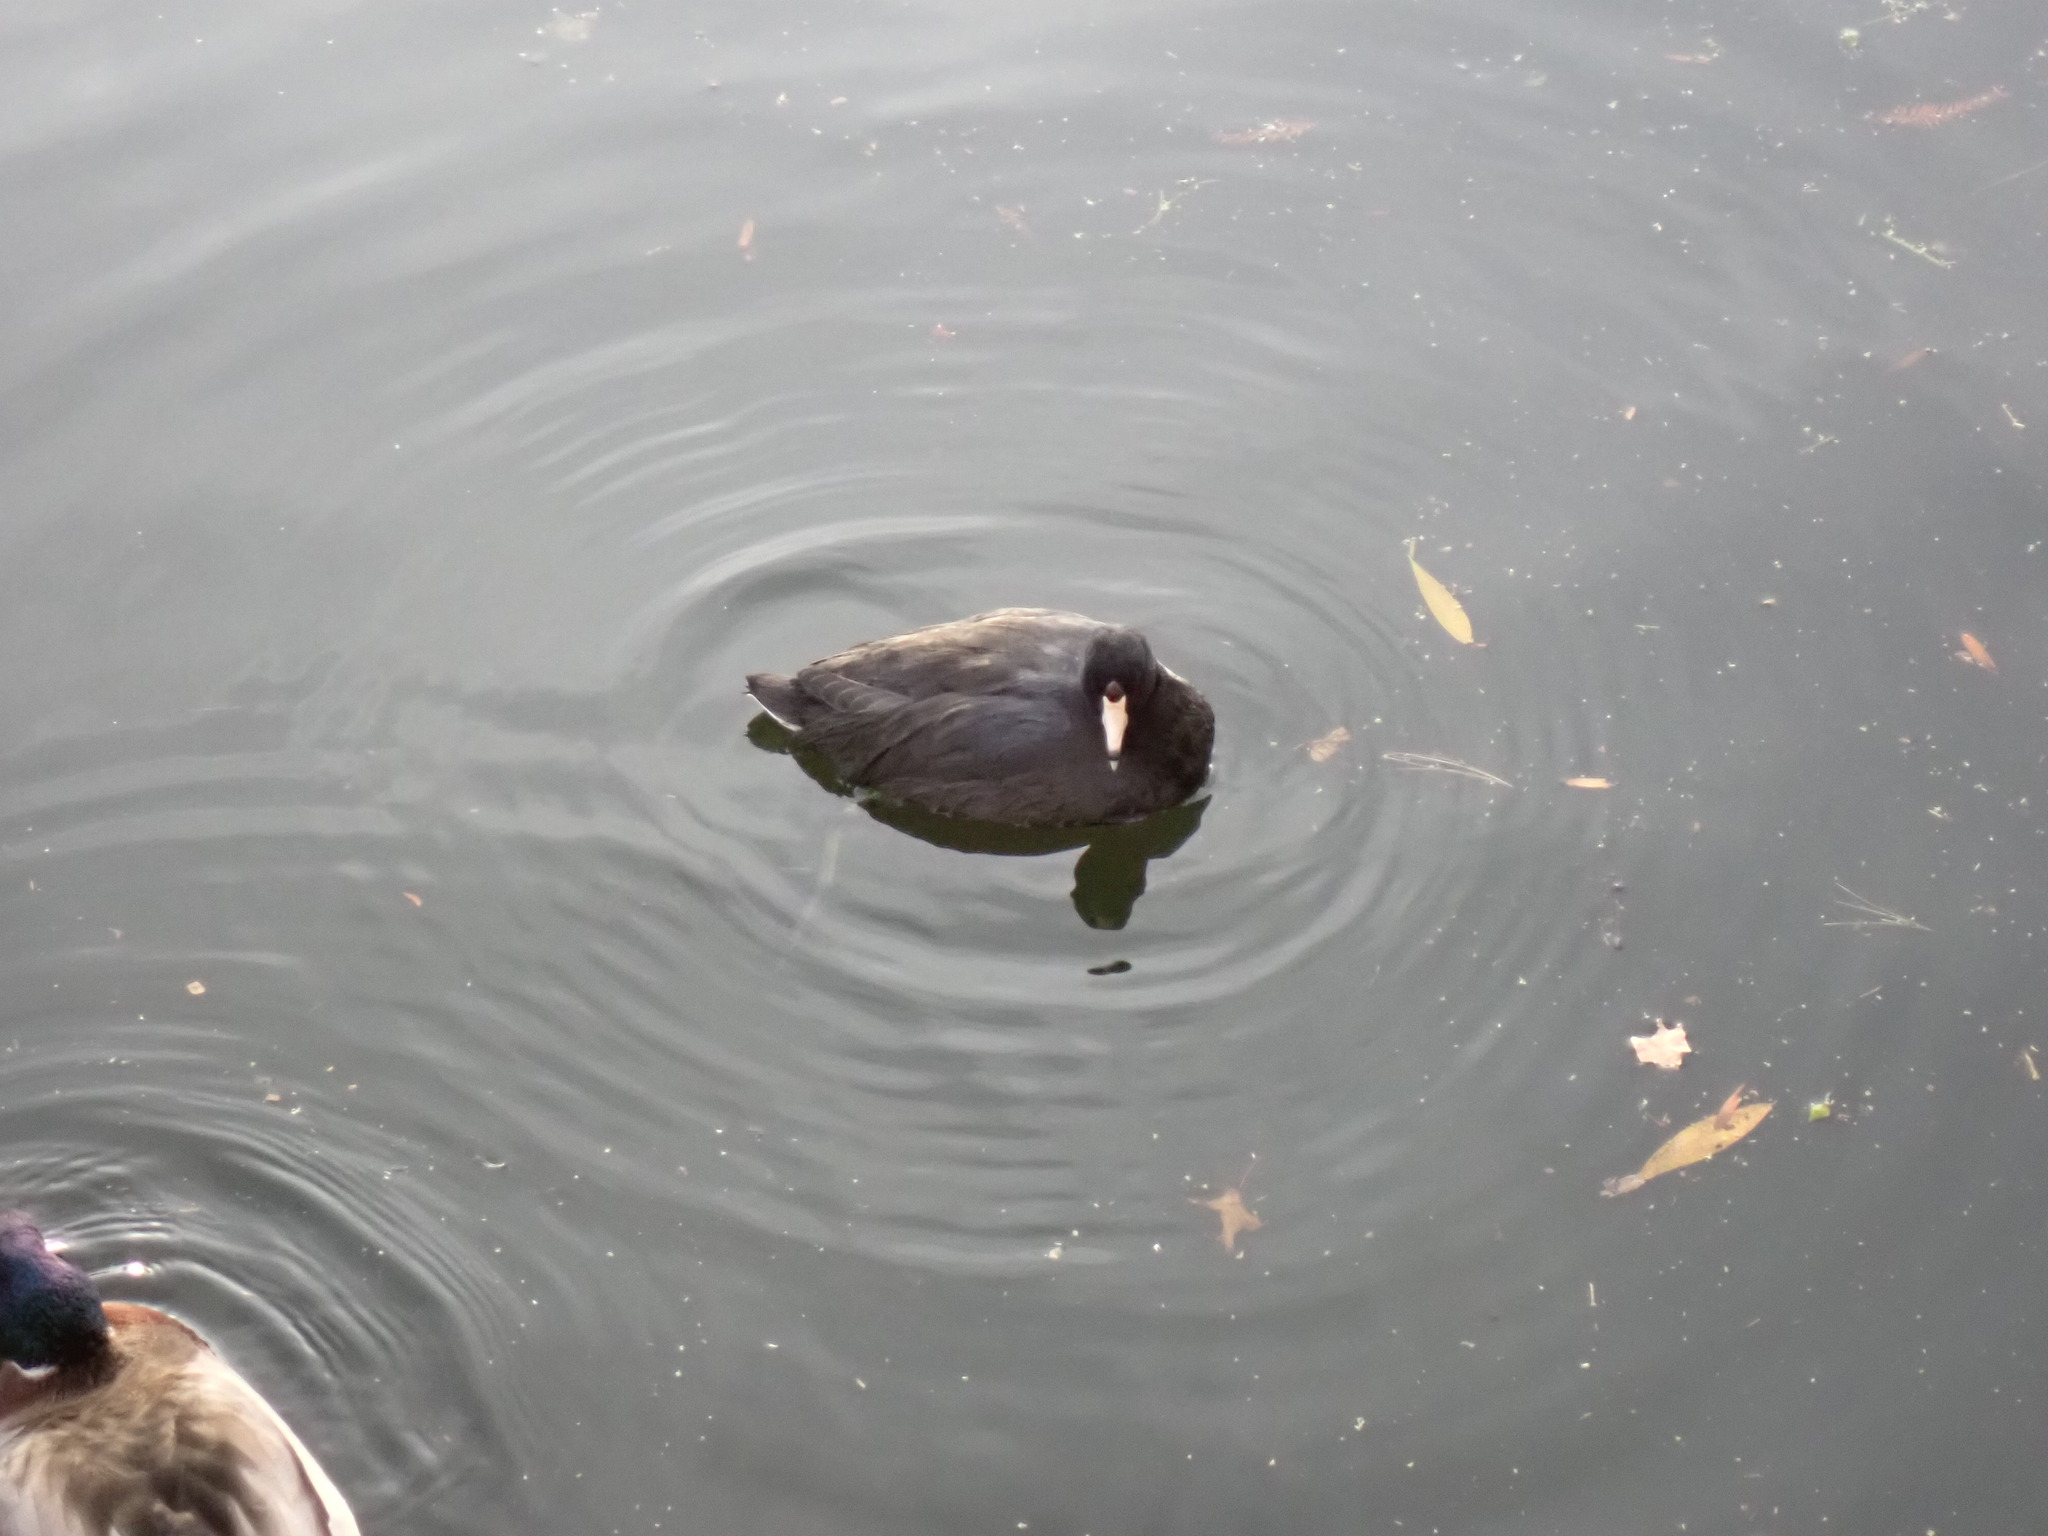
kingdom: Animalia
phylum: Chordata
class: Aves
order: Gruiformes
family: Rallidae
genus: Fulica
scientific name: Fulica americana
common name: American coot
